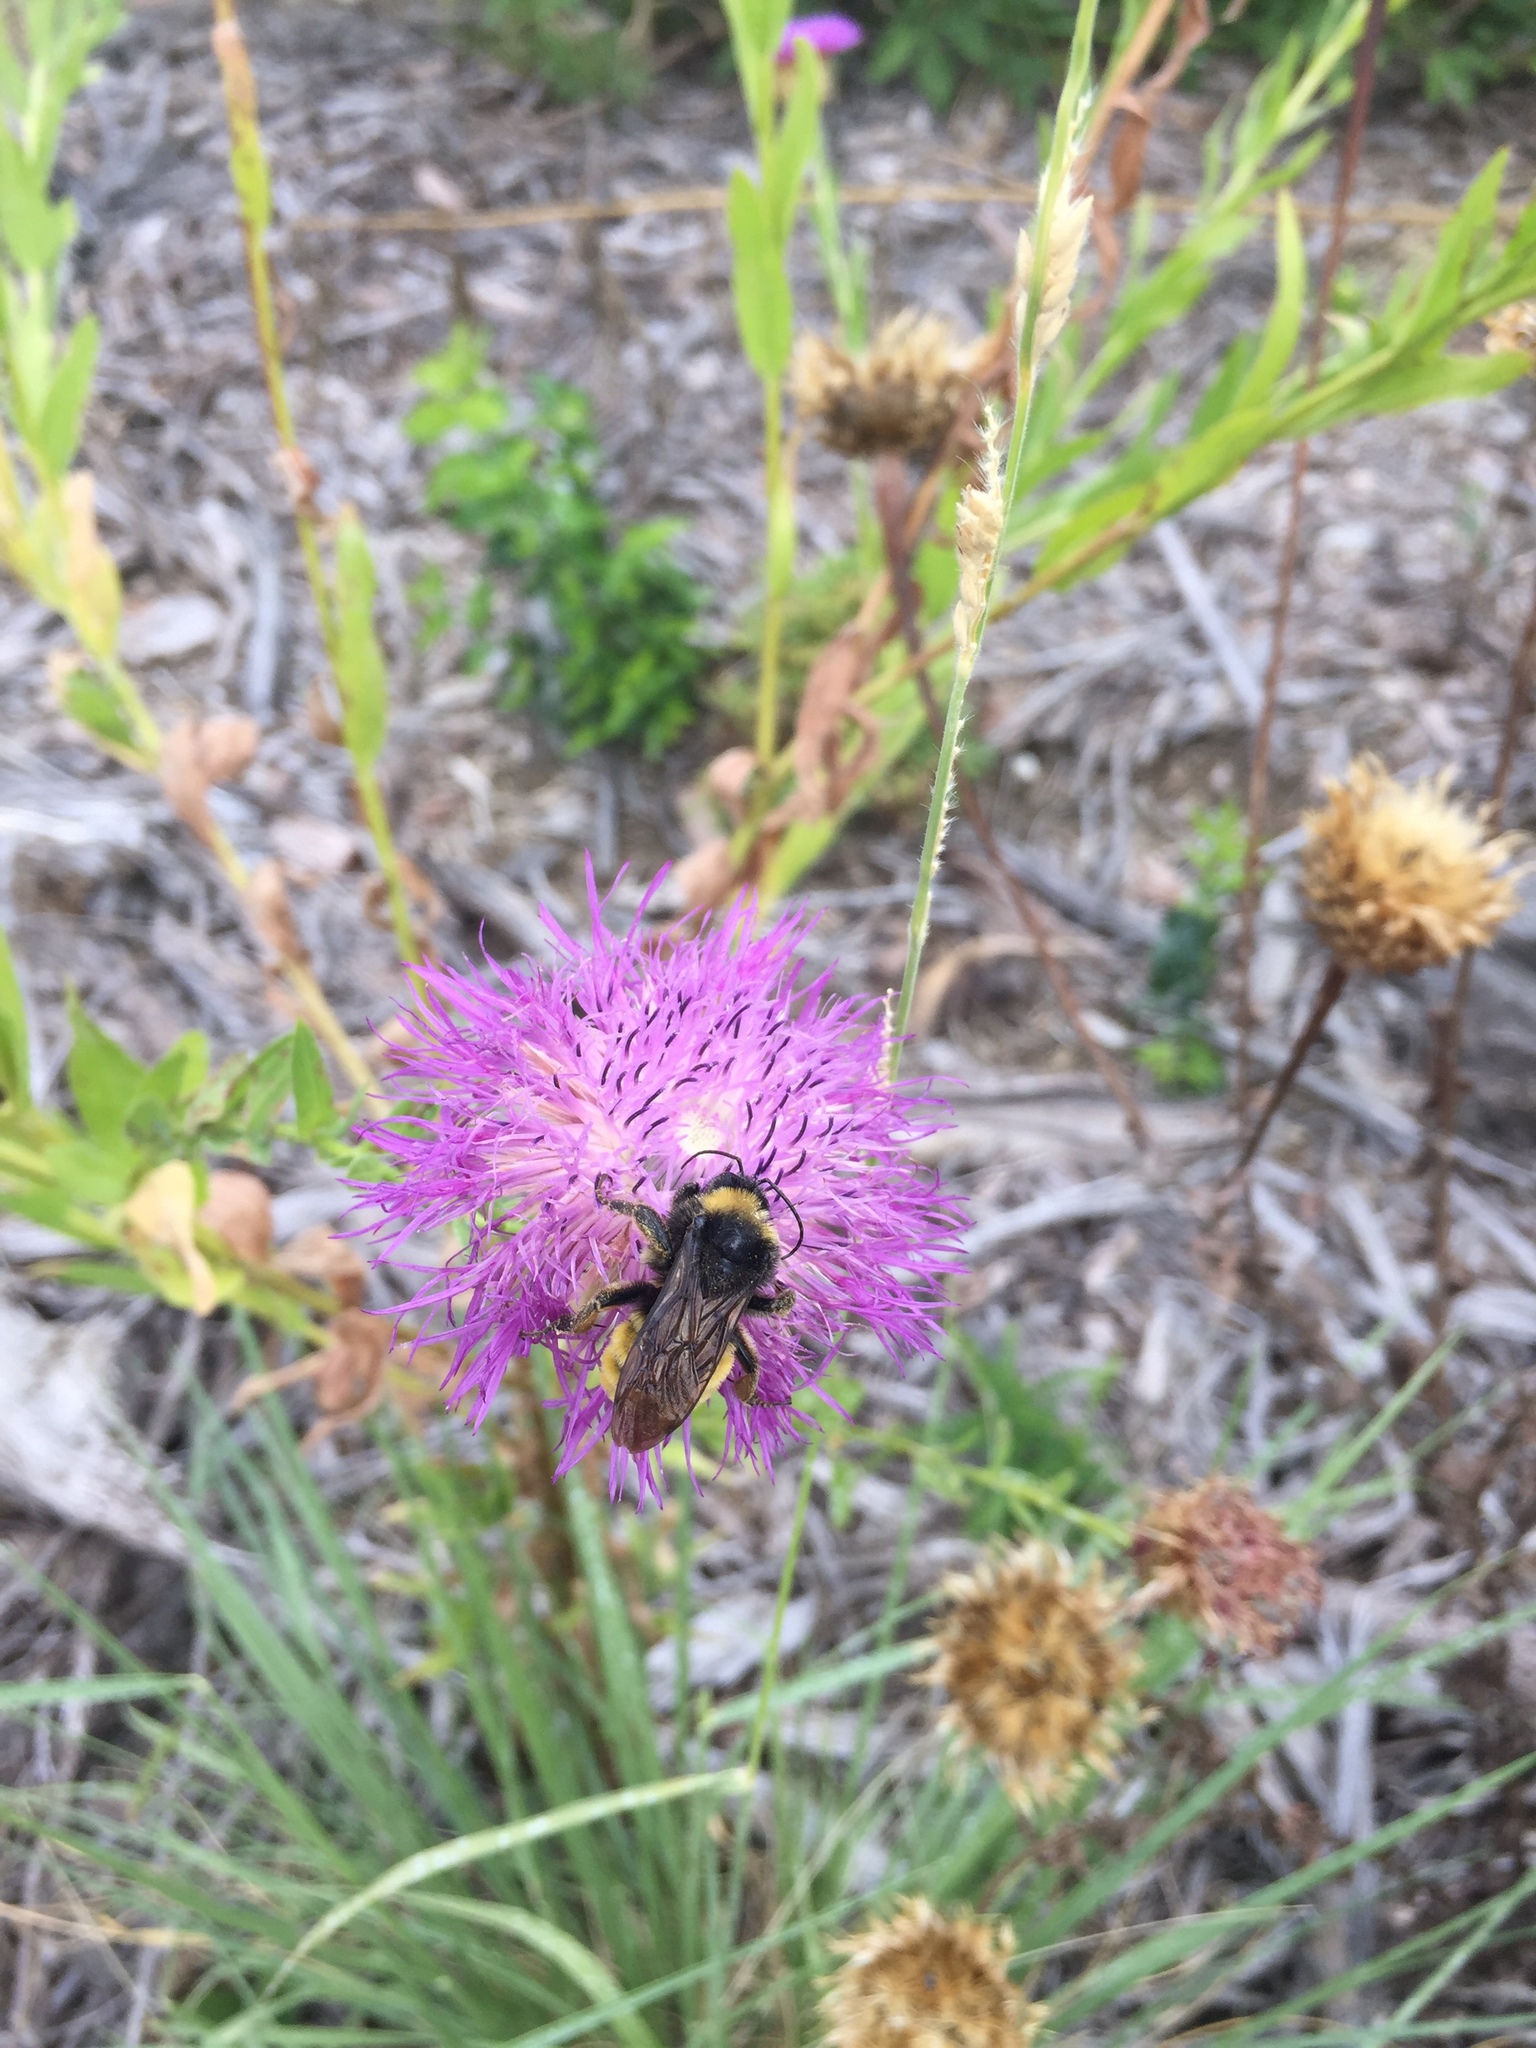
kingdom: Animalia
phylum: Arthropoda
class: Insecta
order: Hymenoptera
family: Apidae
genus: Bombus
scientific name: Bombus pensylvanicus
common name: Bumble bee
